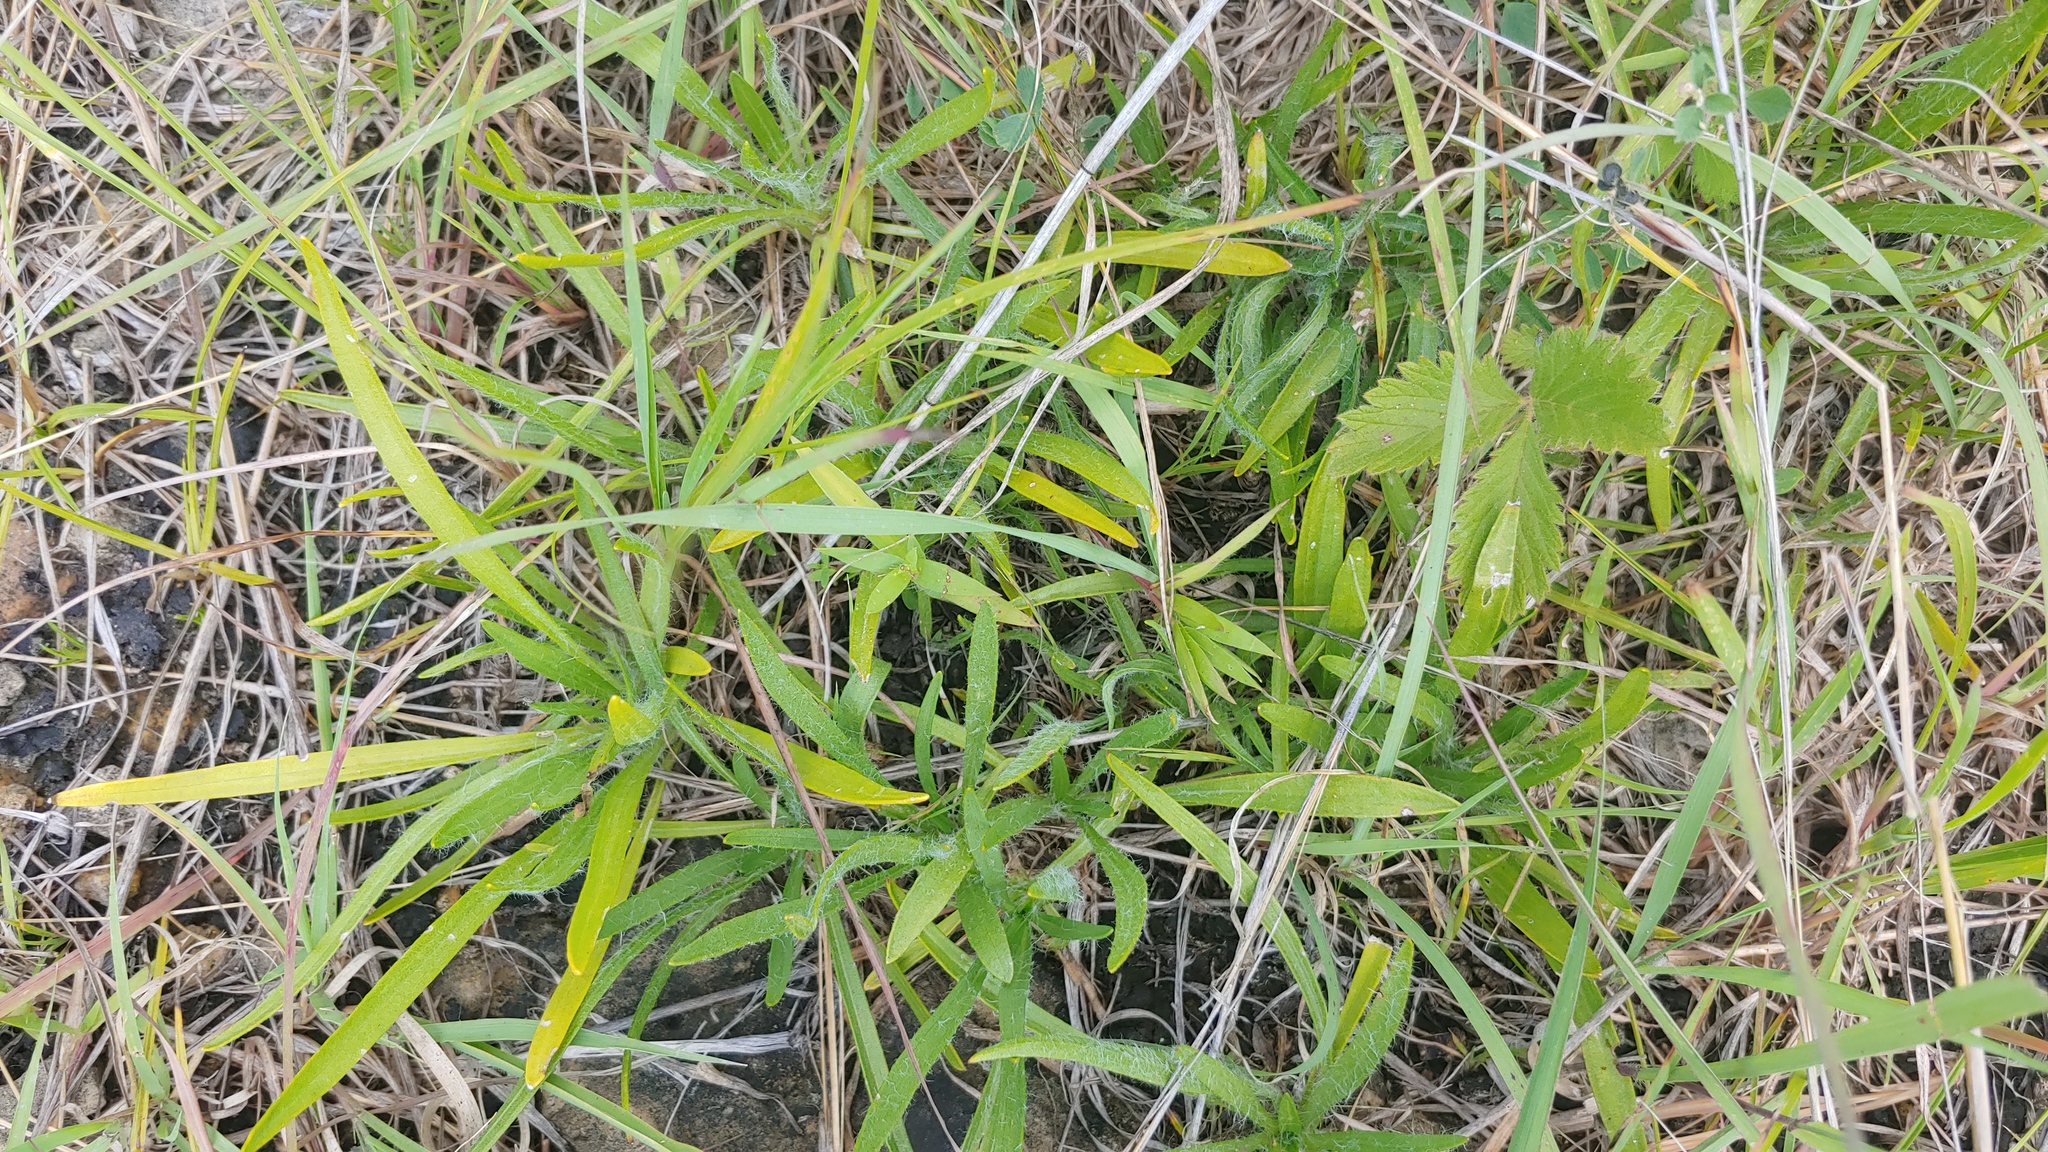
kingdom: Plantae
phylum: Tracheophyta
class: Magnoliopsida
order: Asterales
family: Asteraceae
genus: Tetraneuris
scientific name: Tetraneuris herbacea
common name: Lakeside daisy
